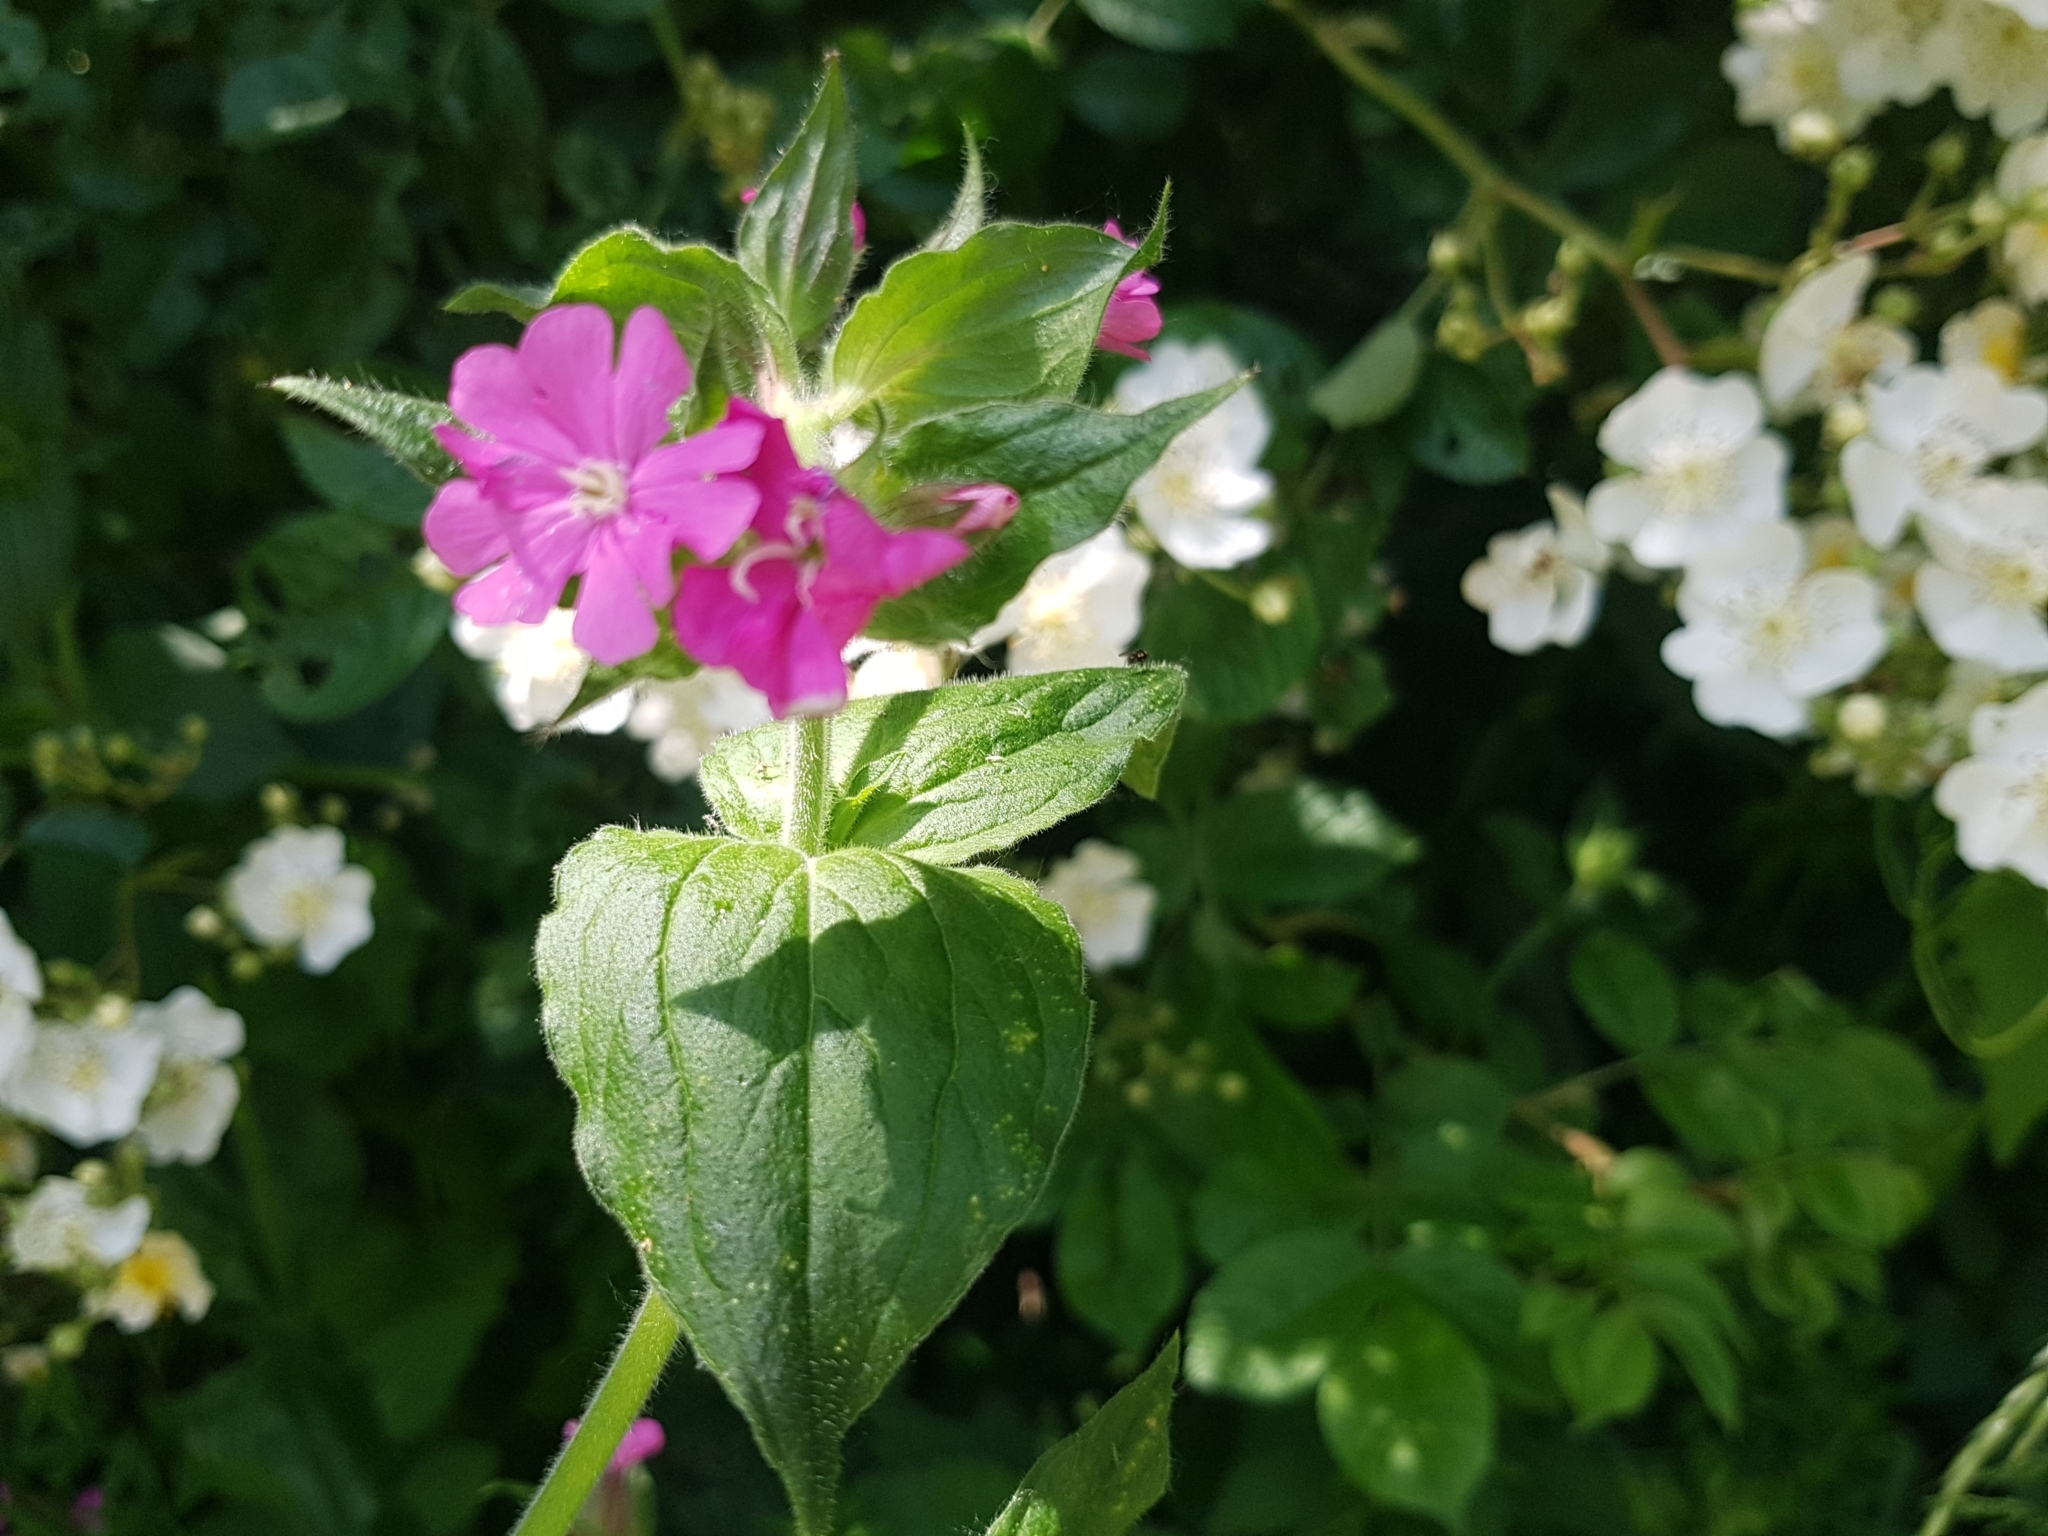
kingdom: Plantae
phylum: Tracheophyta
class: Magnoliopsida
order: Caryophyllales
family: Caryophyllaceae
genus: Silene
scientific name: Silene dioica
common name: Red campion
